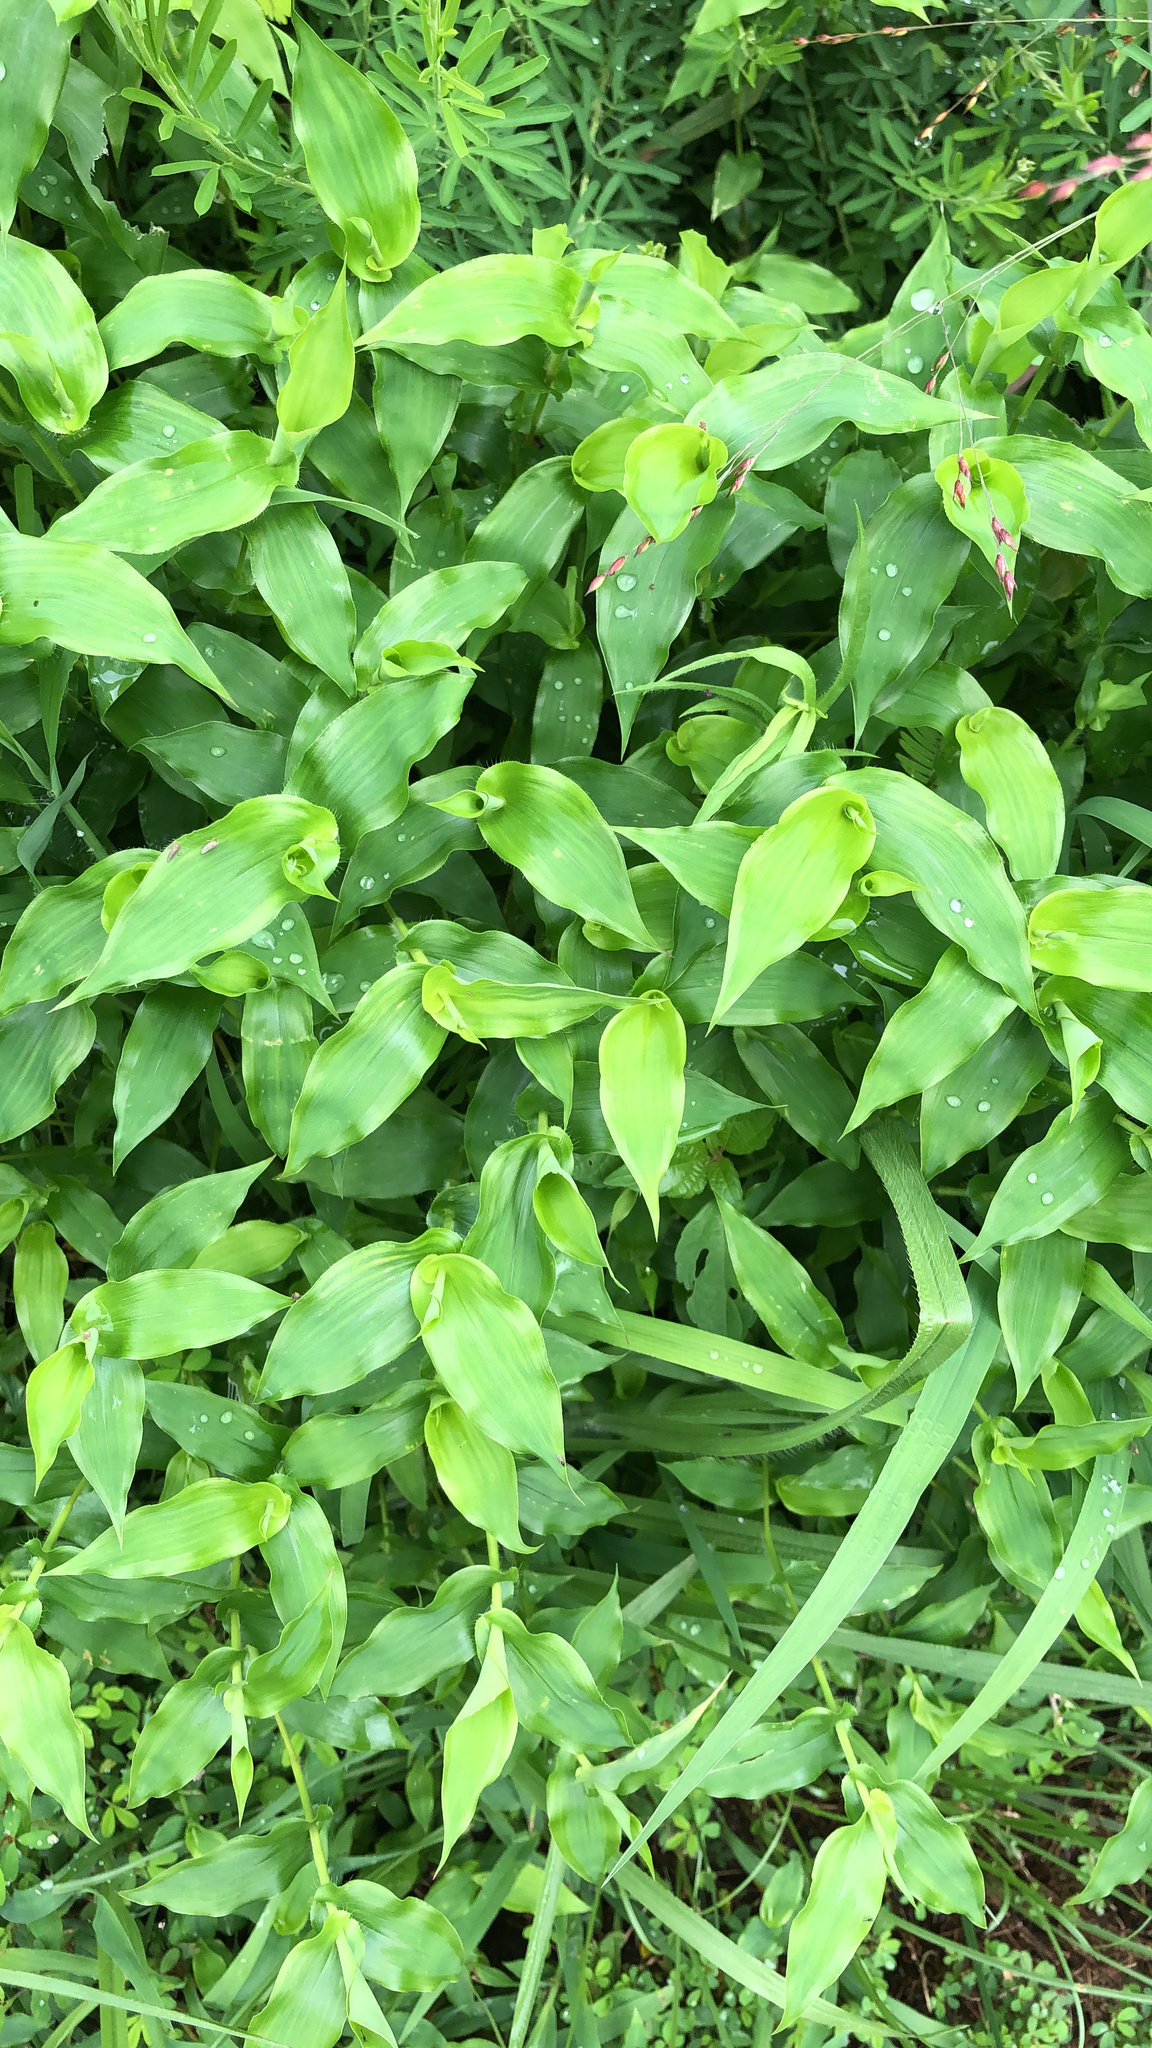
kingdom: Plantae
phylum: Tracheophyta
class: Liliopsida
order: Poales
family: Poaceae
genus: Arthraxon
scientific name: Arthraxon hispidus
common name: Small carpgrass
